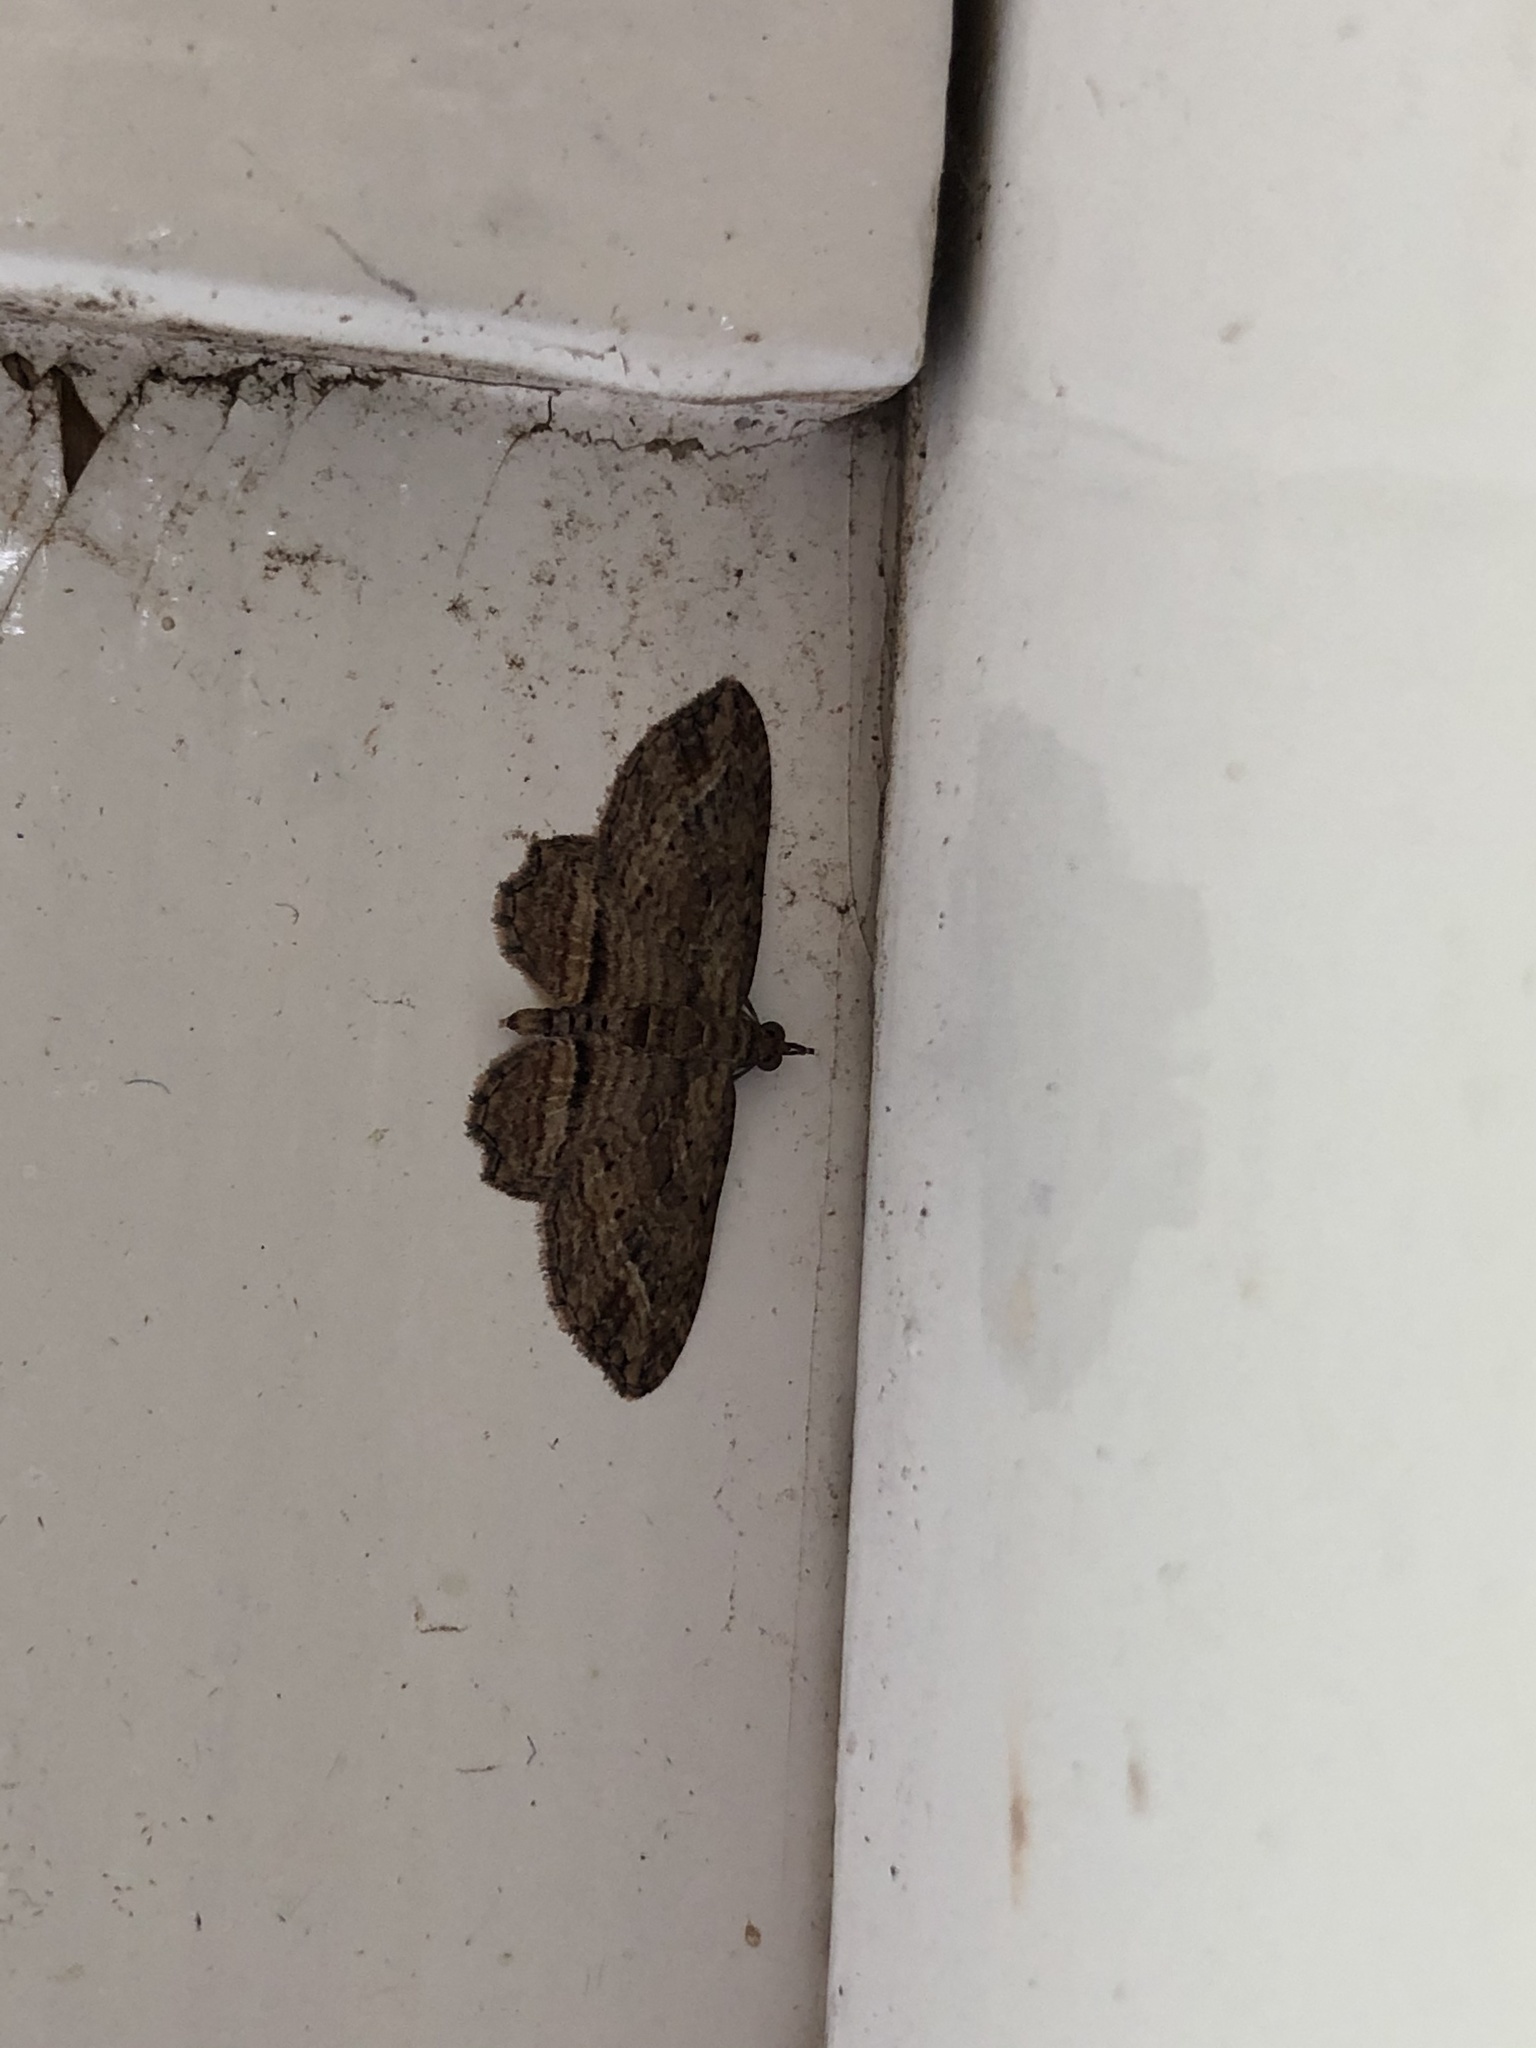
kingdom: Animalia
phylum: Arthropoda
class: Insecta
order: Lepidoptera
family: Geometridae
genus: Chloroclystis
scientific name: Chloroclystis filata
